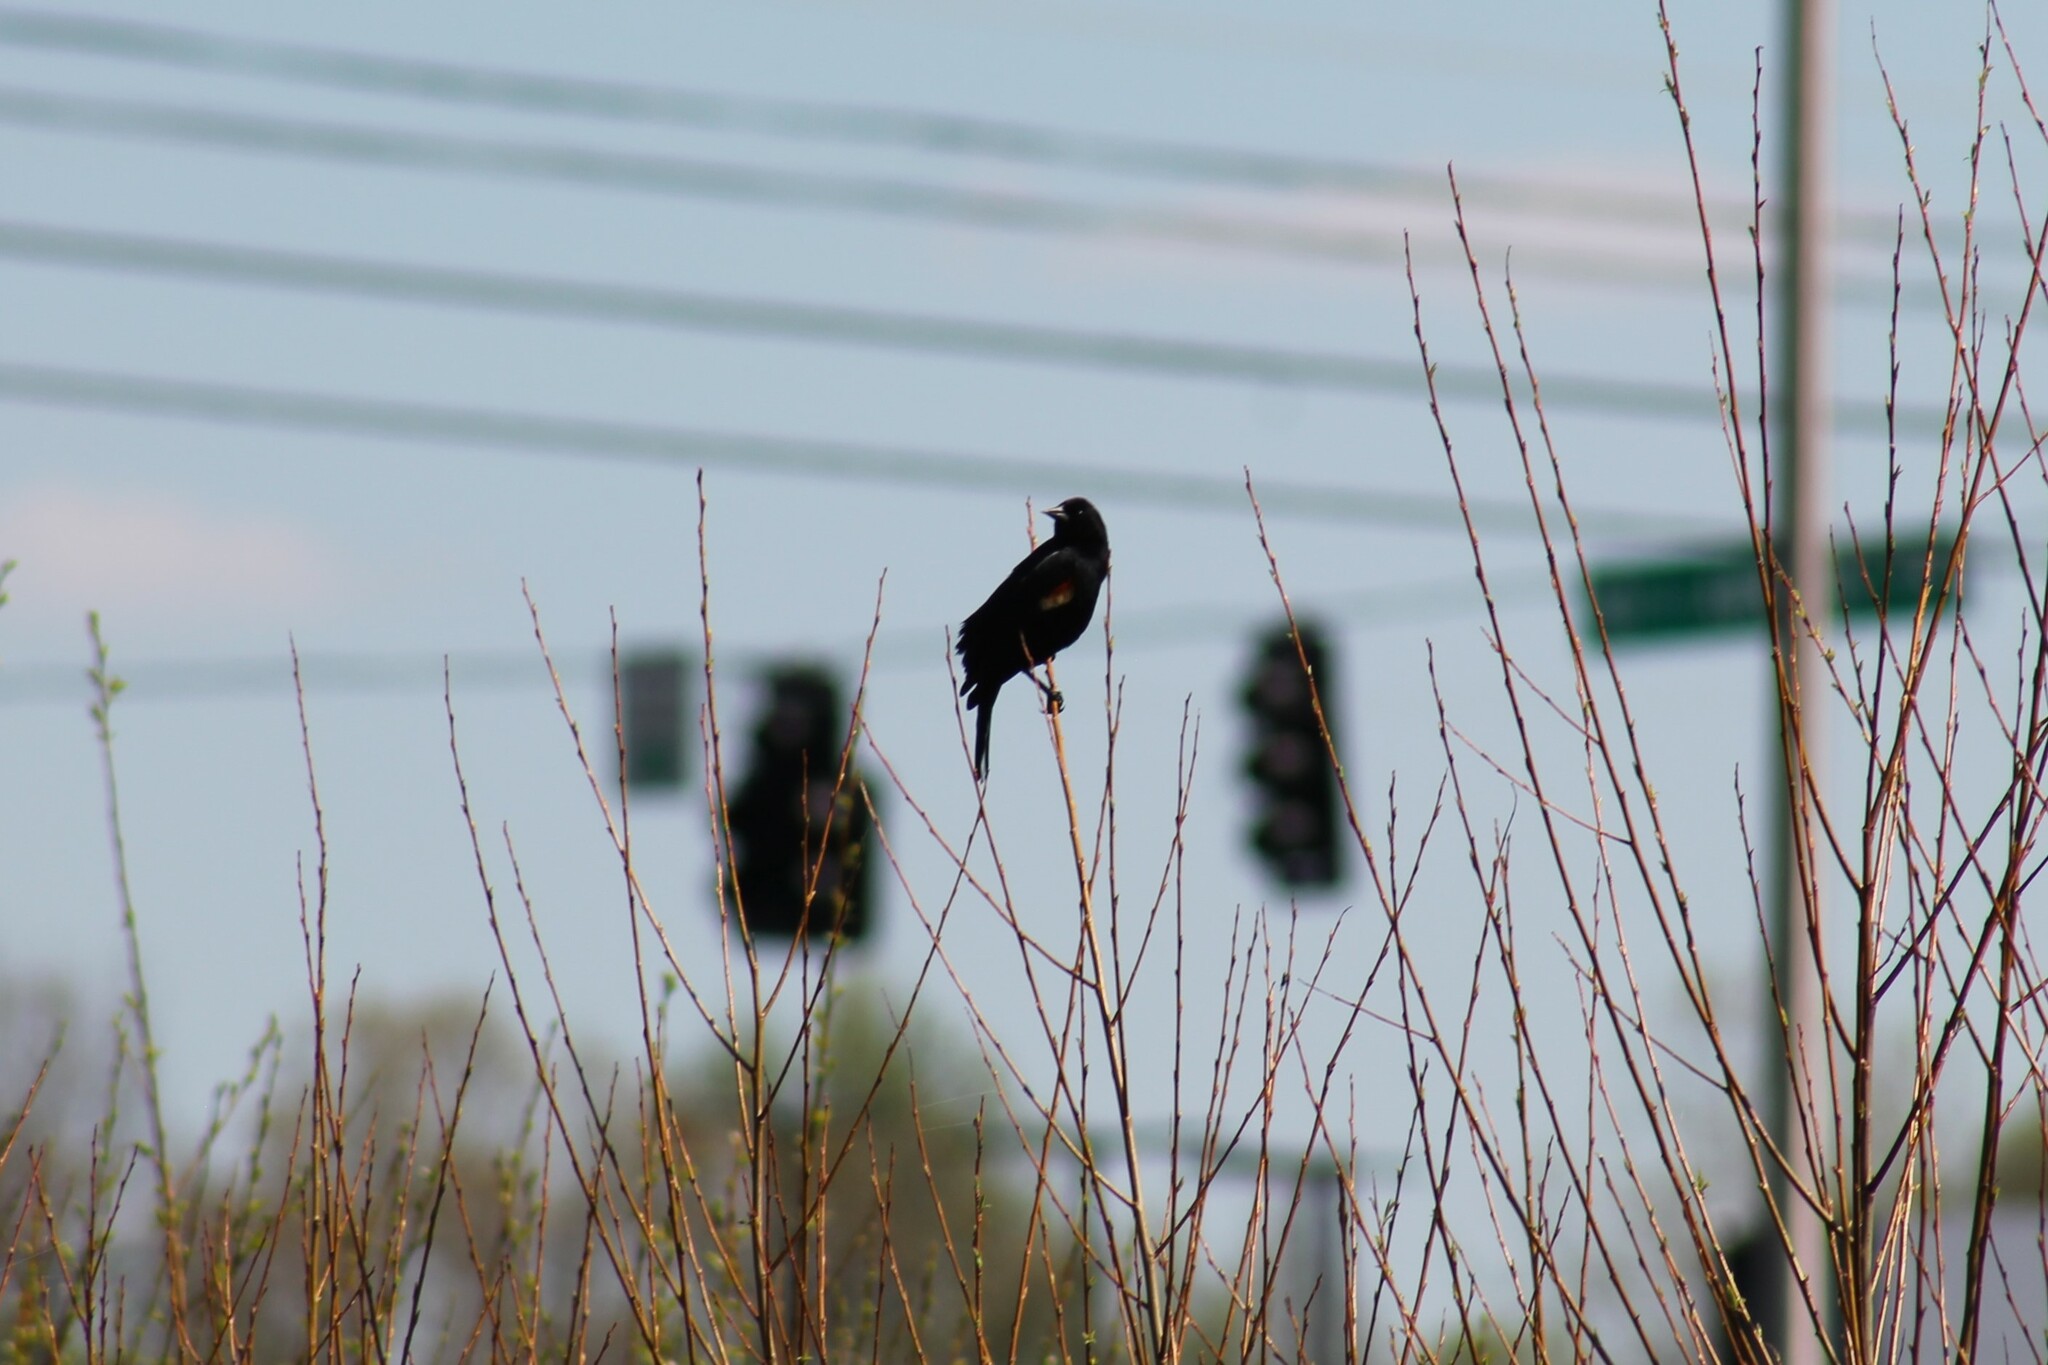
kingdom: Animalia
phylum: Chordata
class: Aves
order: Passeriformes
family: Icteridae
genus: Agelaius
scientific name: Agelaius phoeniceus
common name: Red-winged blackbird
